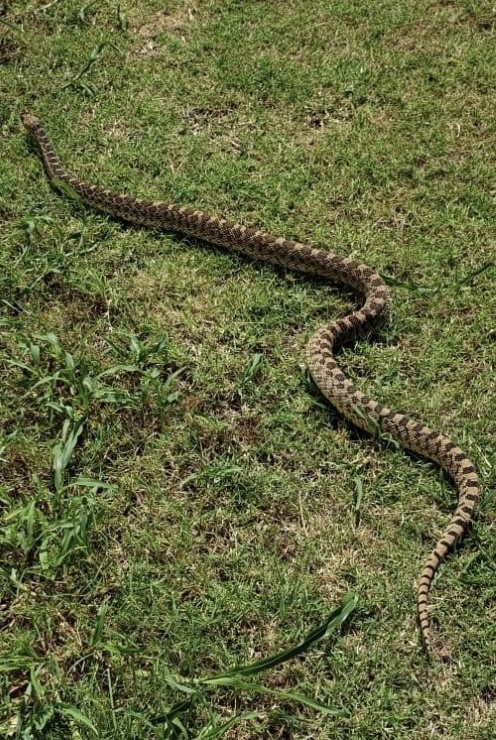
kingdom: Animalia
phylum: Chordata
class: Squamata
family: Colubridae
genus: Pituophis
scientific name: Pituophis catenifer
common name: Gopher snake
